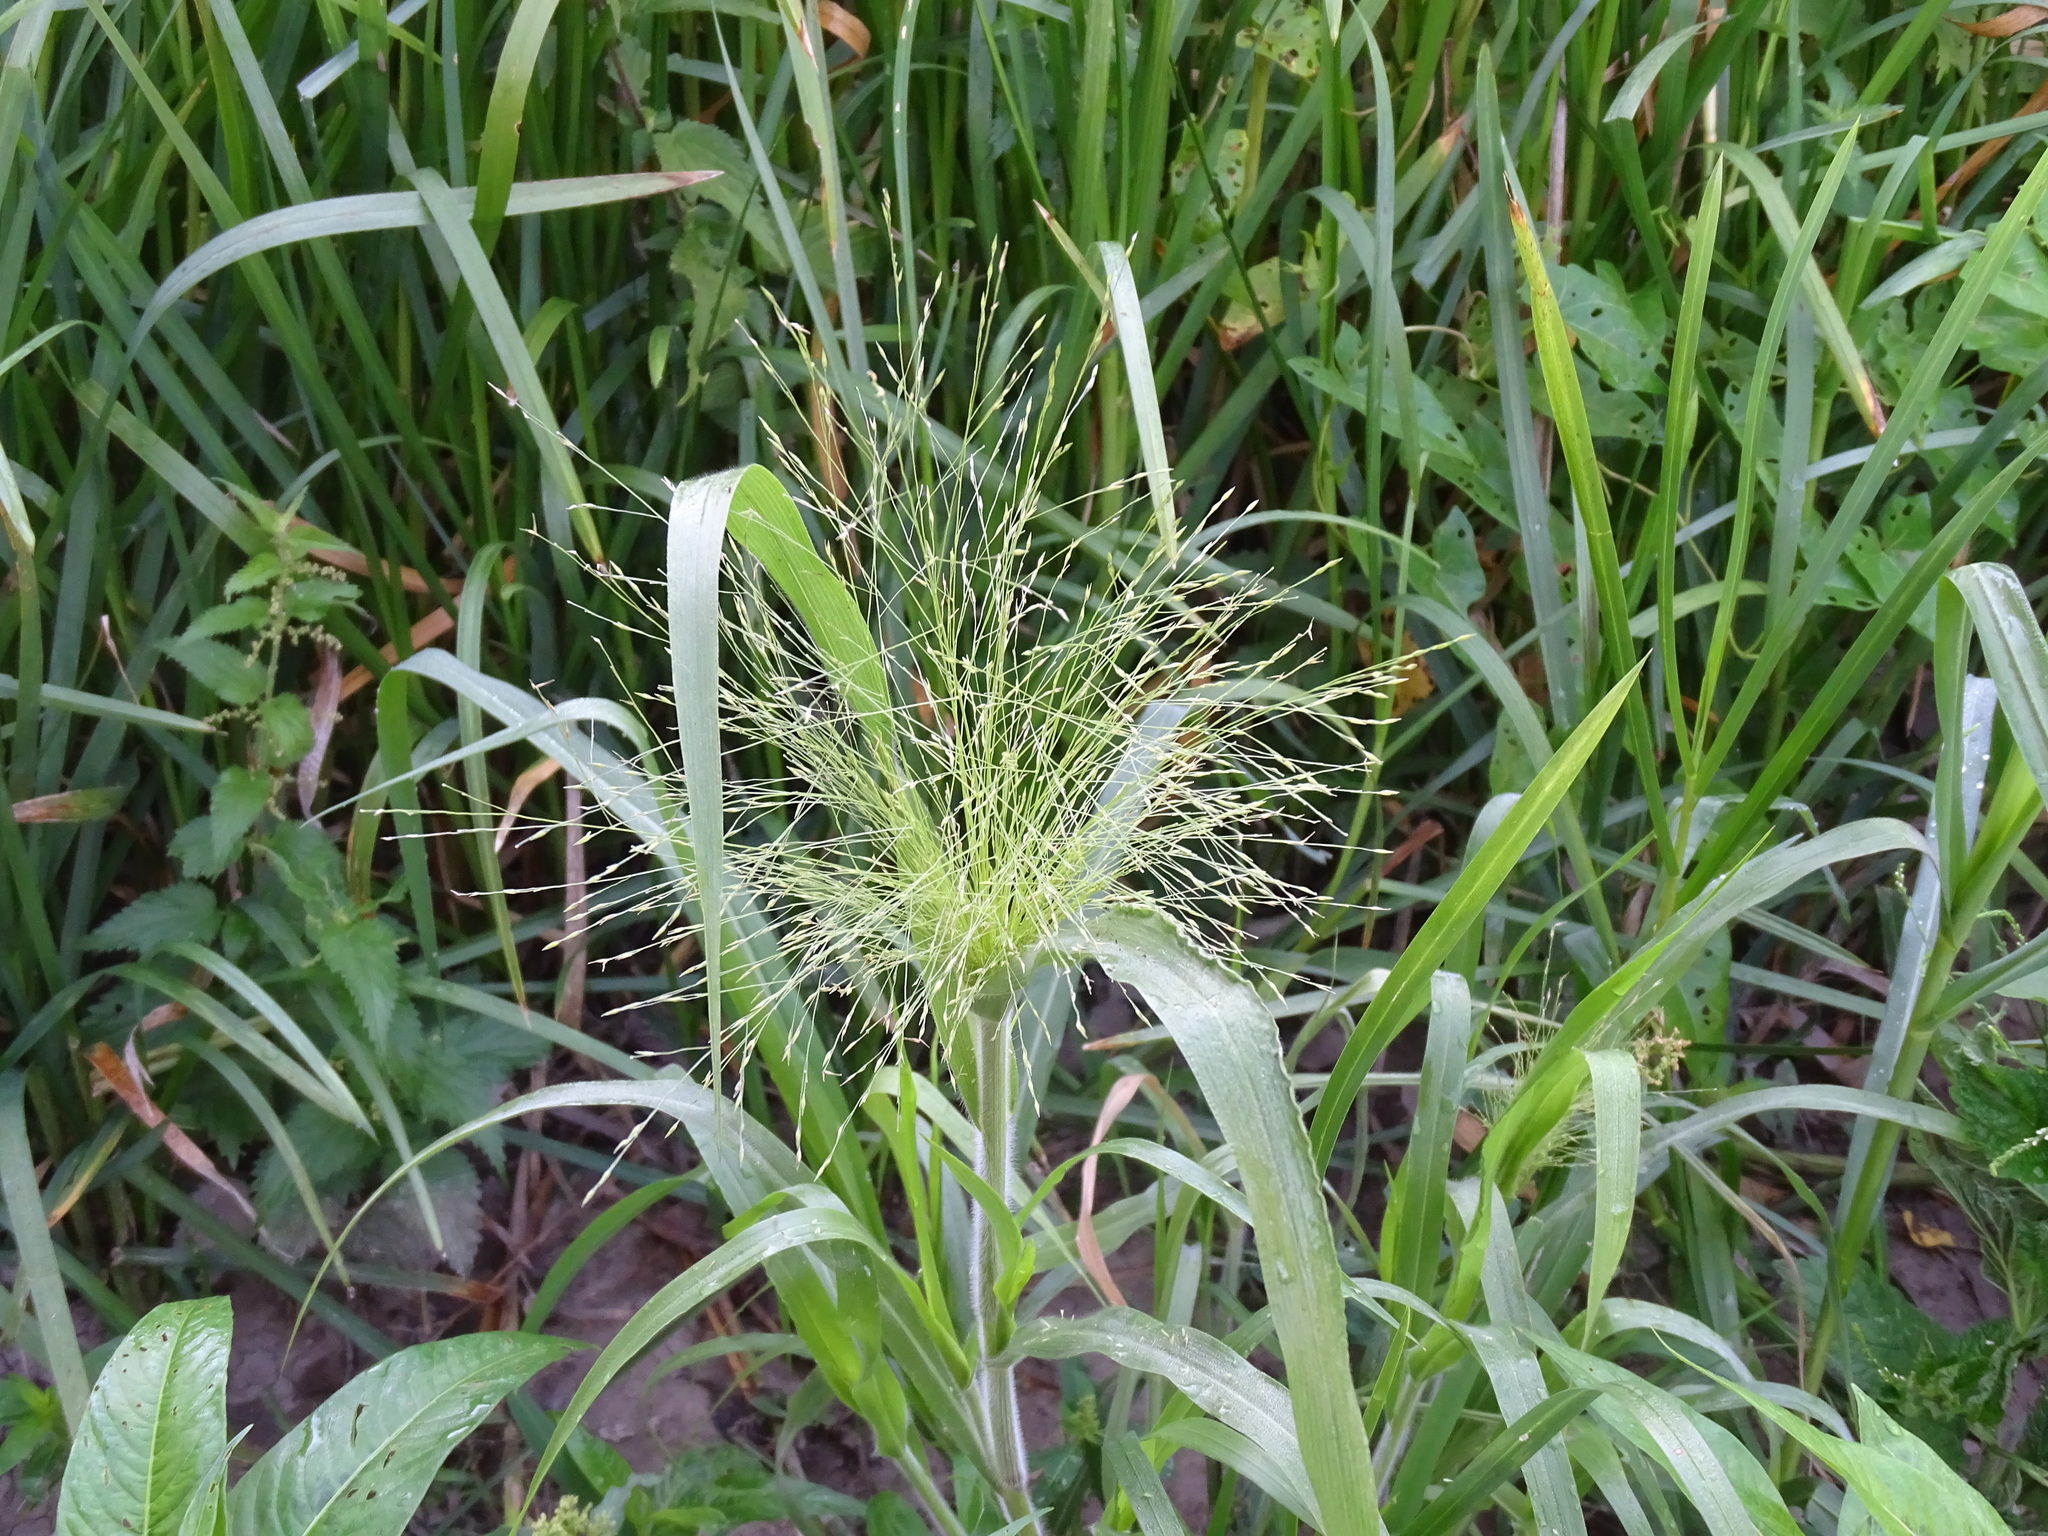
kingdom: Plantae
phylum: Tracheophyta
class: Liliopsida
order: Poales
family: Poaceae
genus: Panicum
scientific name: Panicum capillare
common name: Witch-grass
